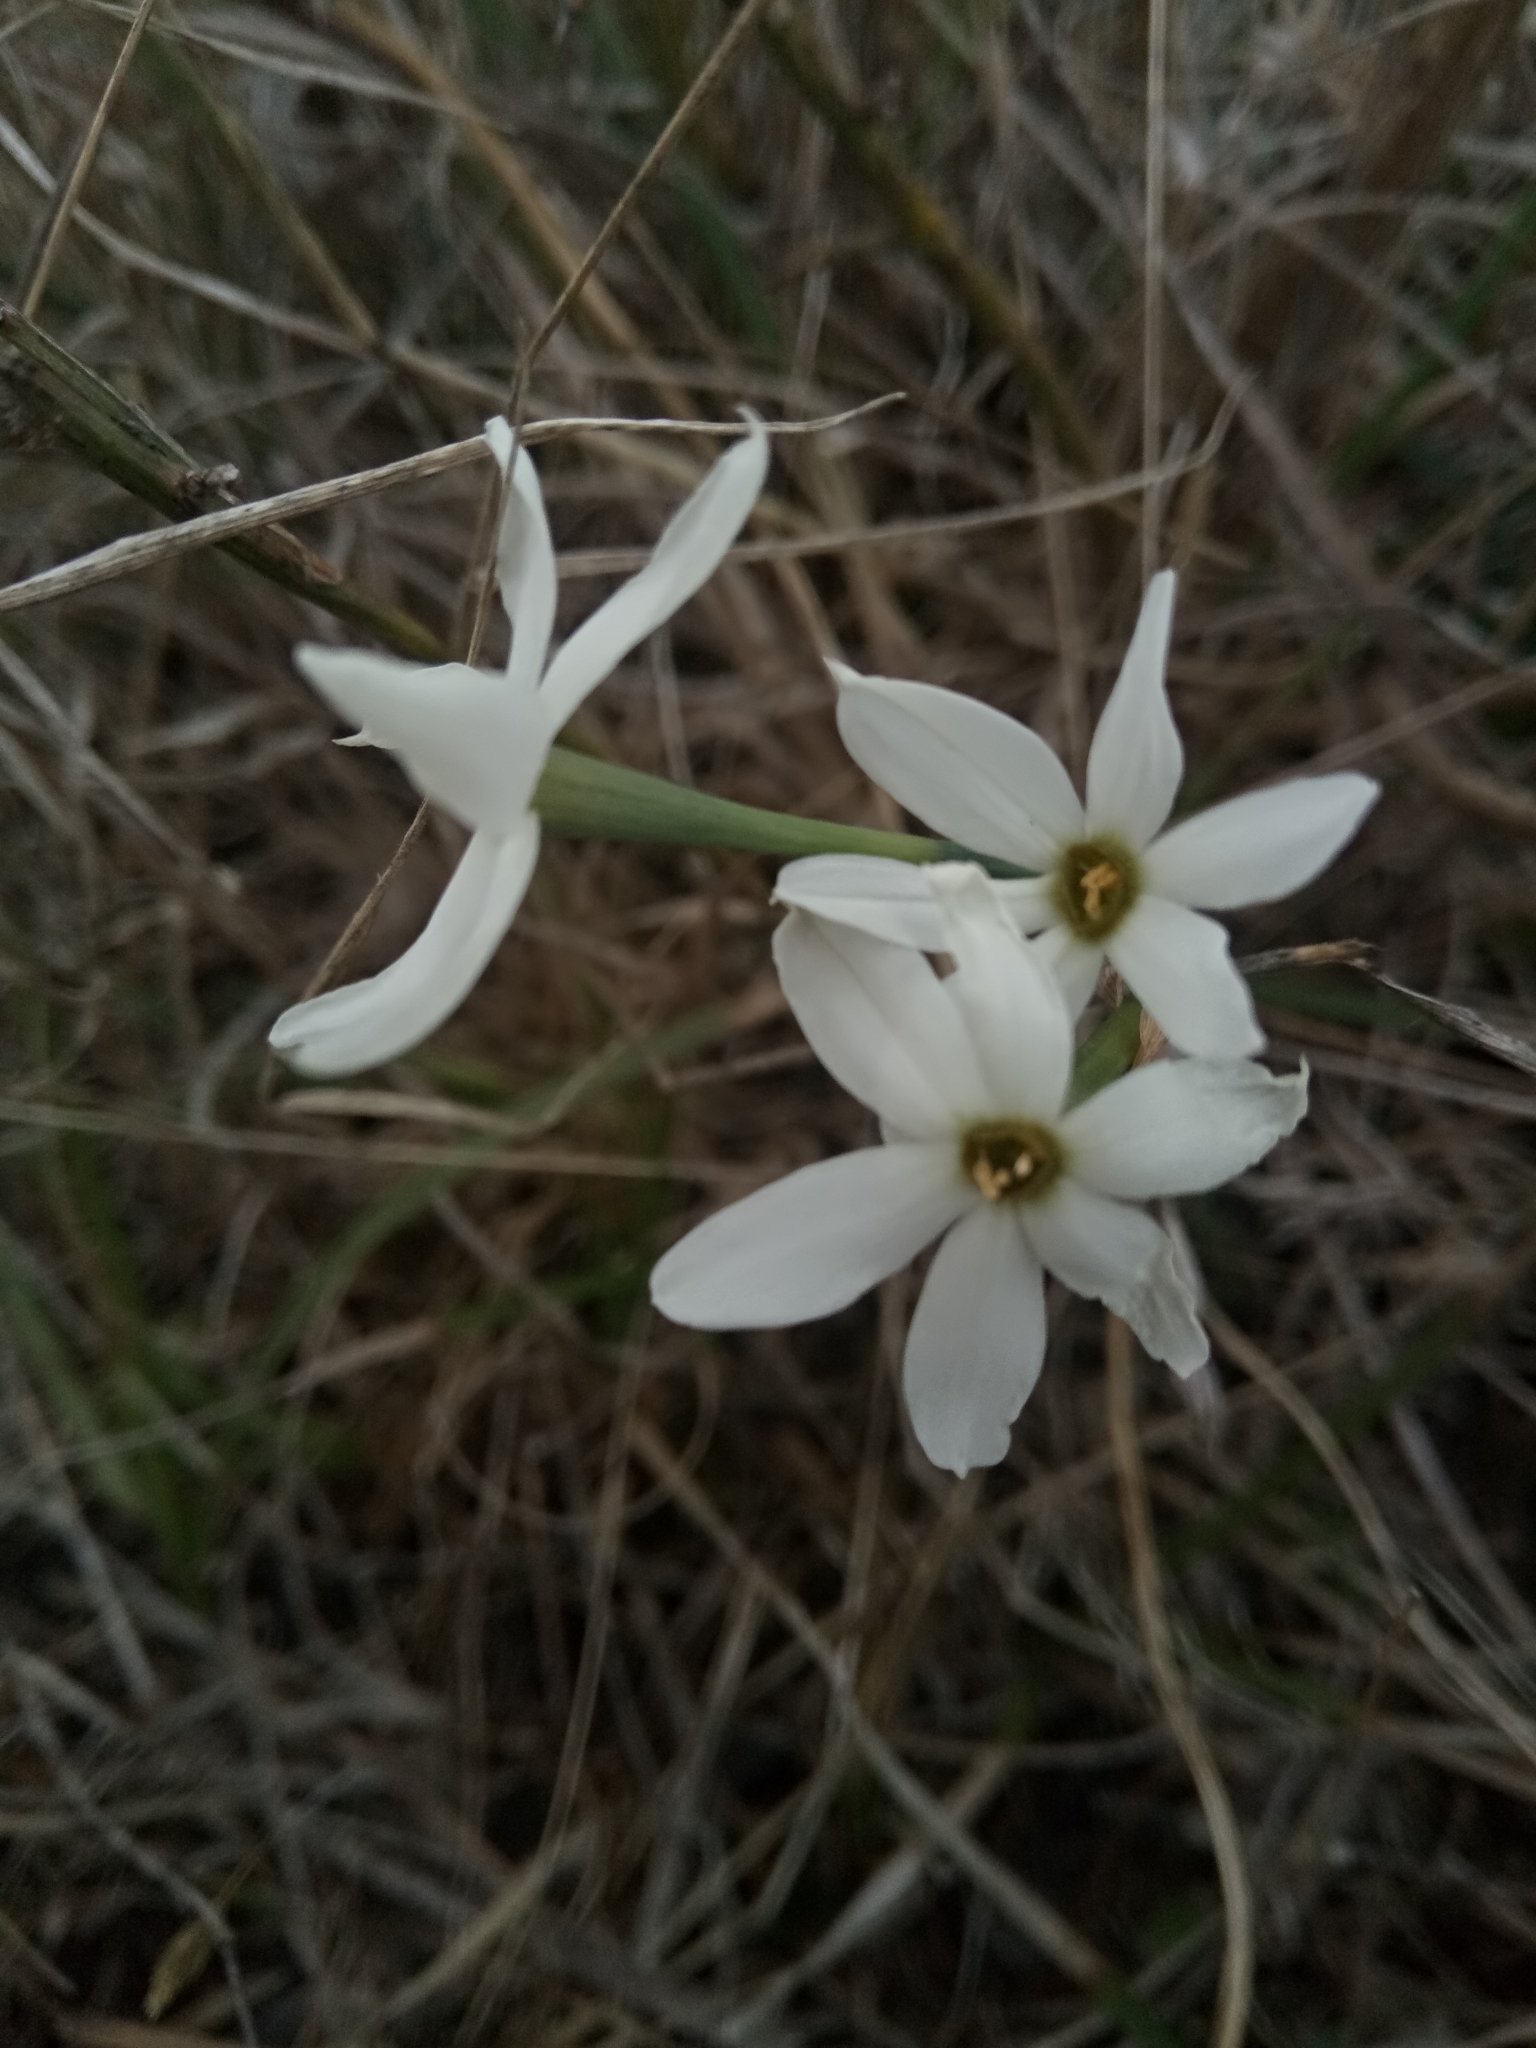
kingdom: Plantae
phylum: Tracheophyta
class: Liliopsida
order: Asparagales
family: Amaryllidaceae
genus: Narcissus
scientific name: Narcissus deficiens
